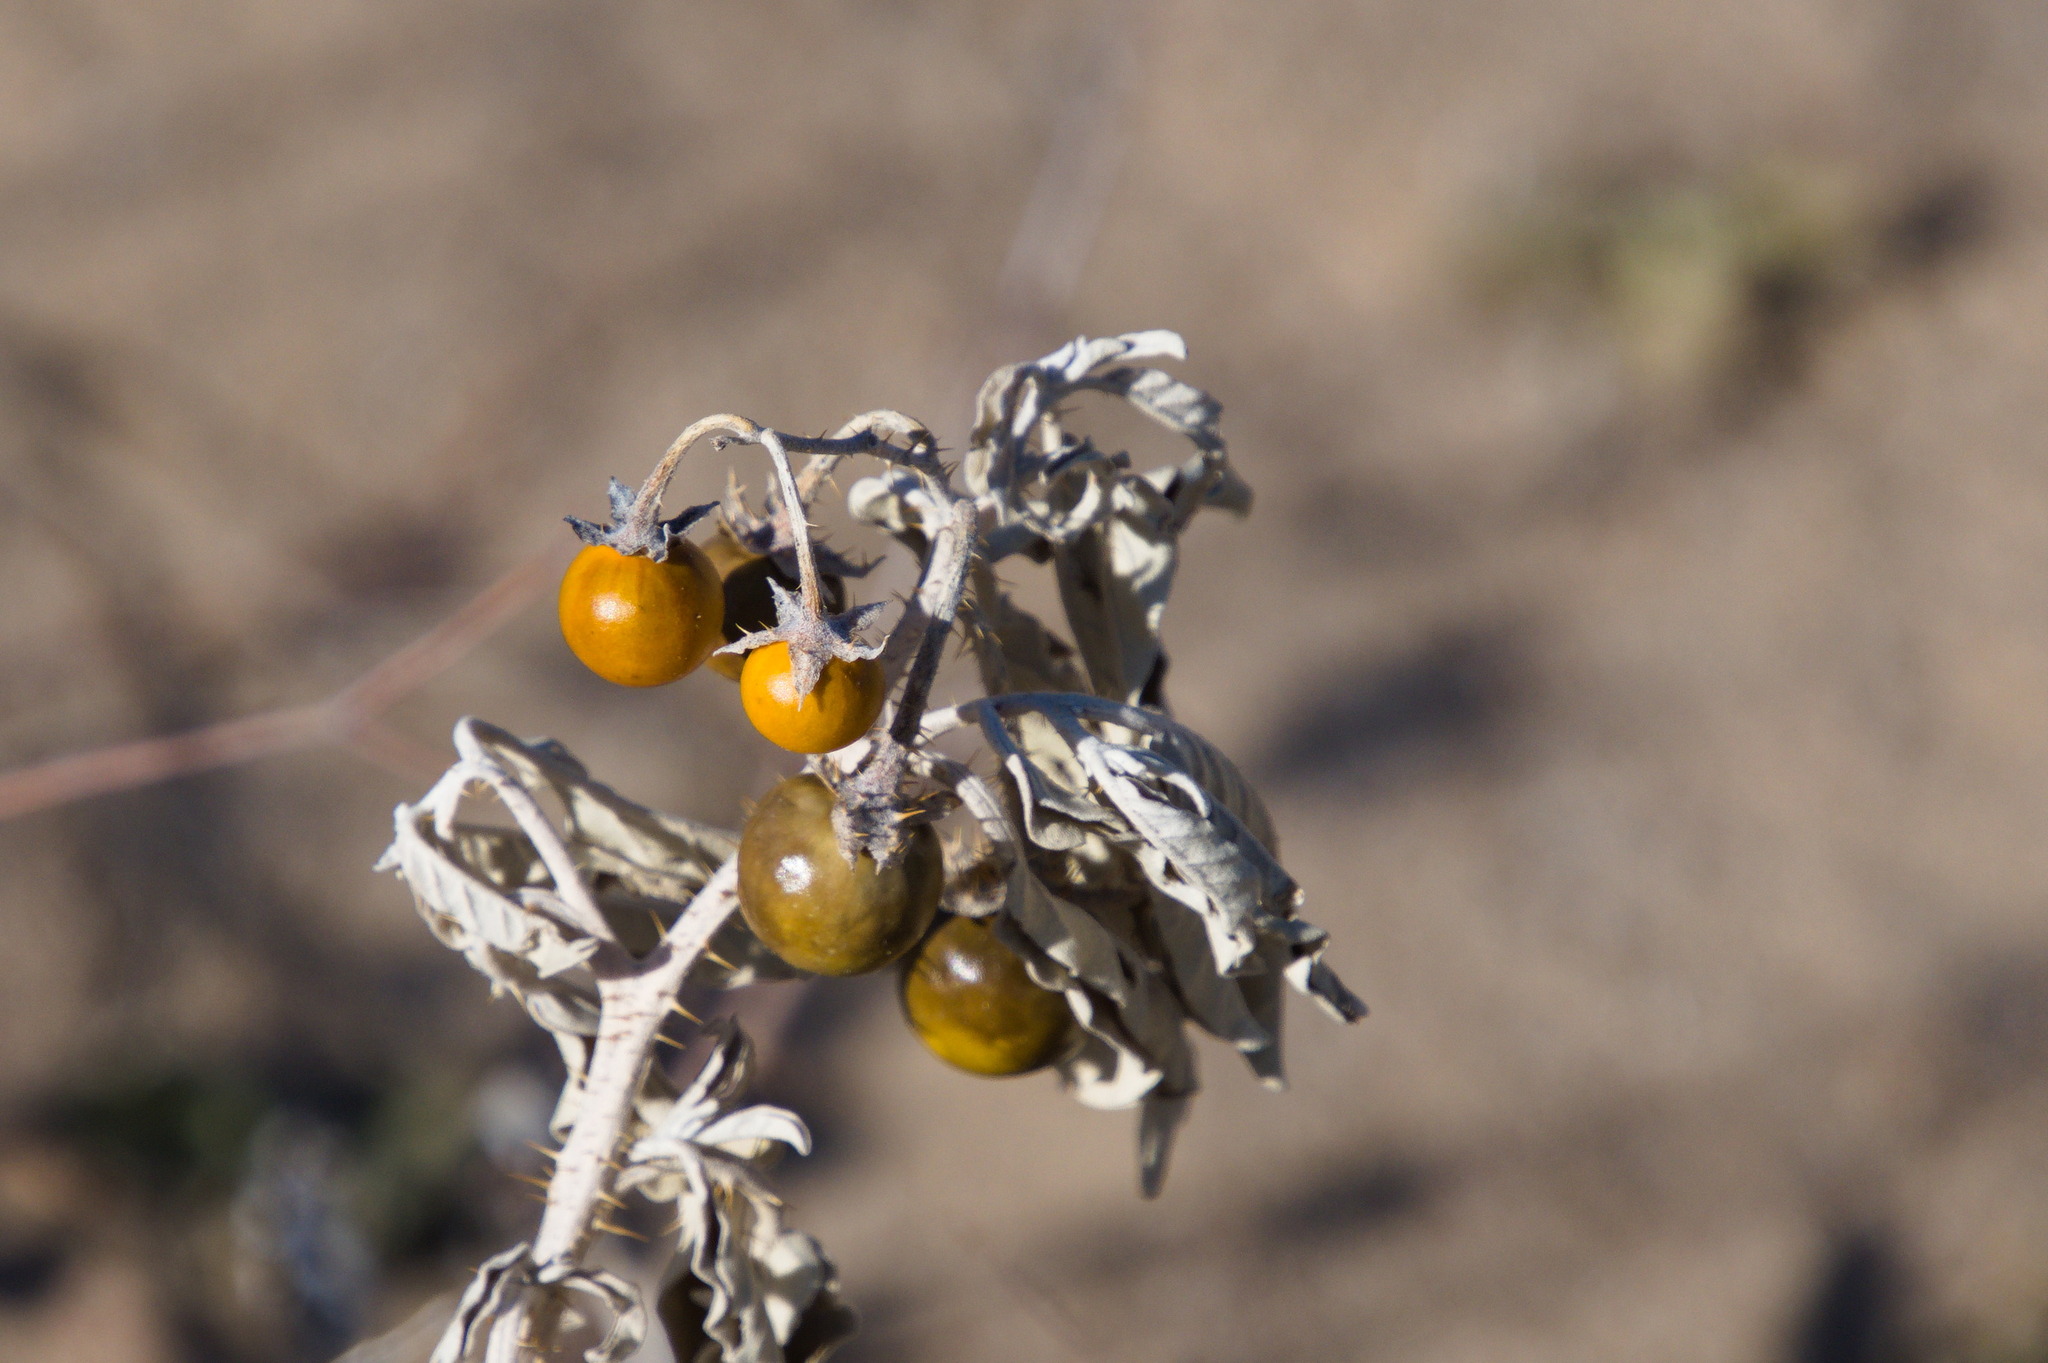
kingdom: Plantae
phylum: Tracheophyta
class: Magnoliopsida
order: Solanales
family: Solanaceae
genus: Solanum
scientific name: Solanum elaeagnifolium
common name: Silverleaf nightshade
